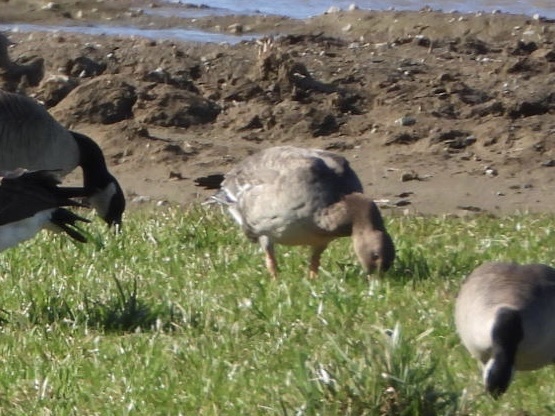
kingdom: Animalia
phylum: Chordata
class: Aves
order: Anseriformes
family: Anatidae
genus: Anser
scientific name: Anser albifrons
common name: Greater white-fronted goose
